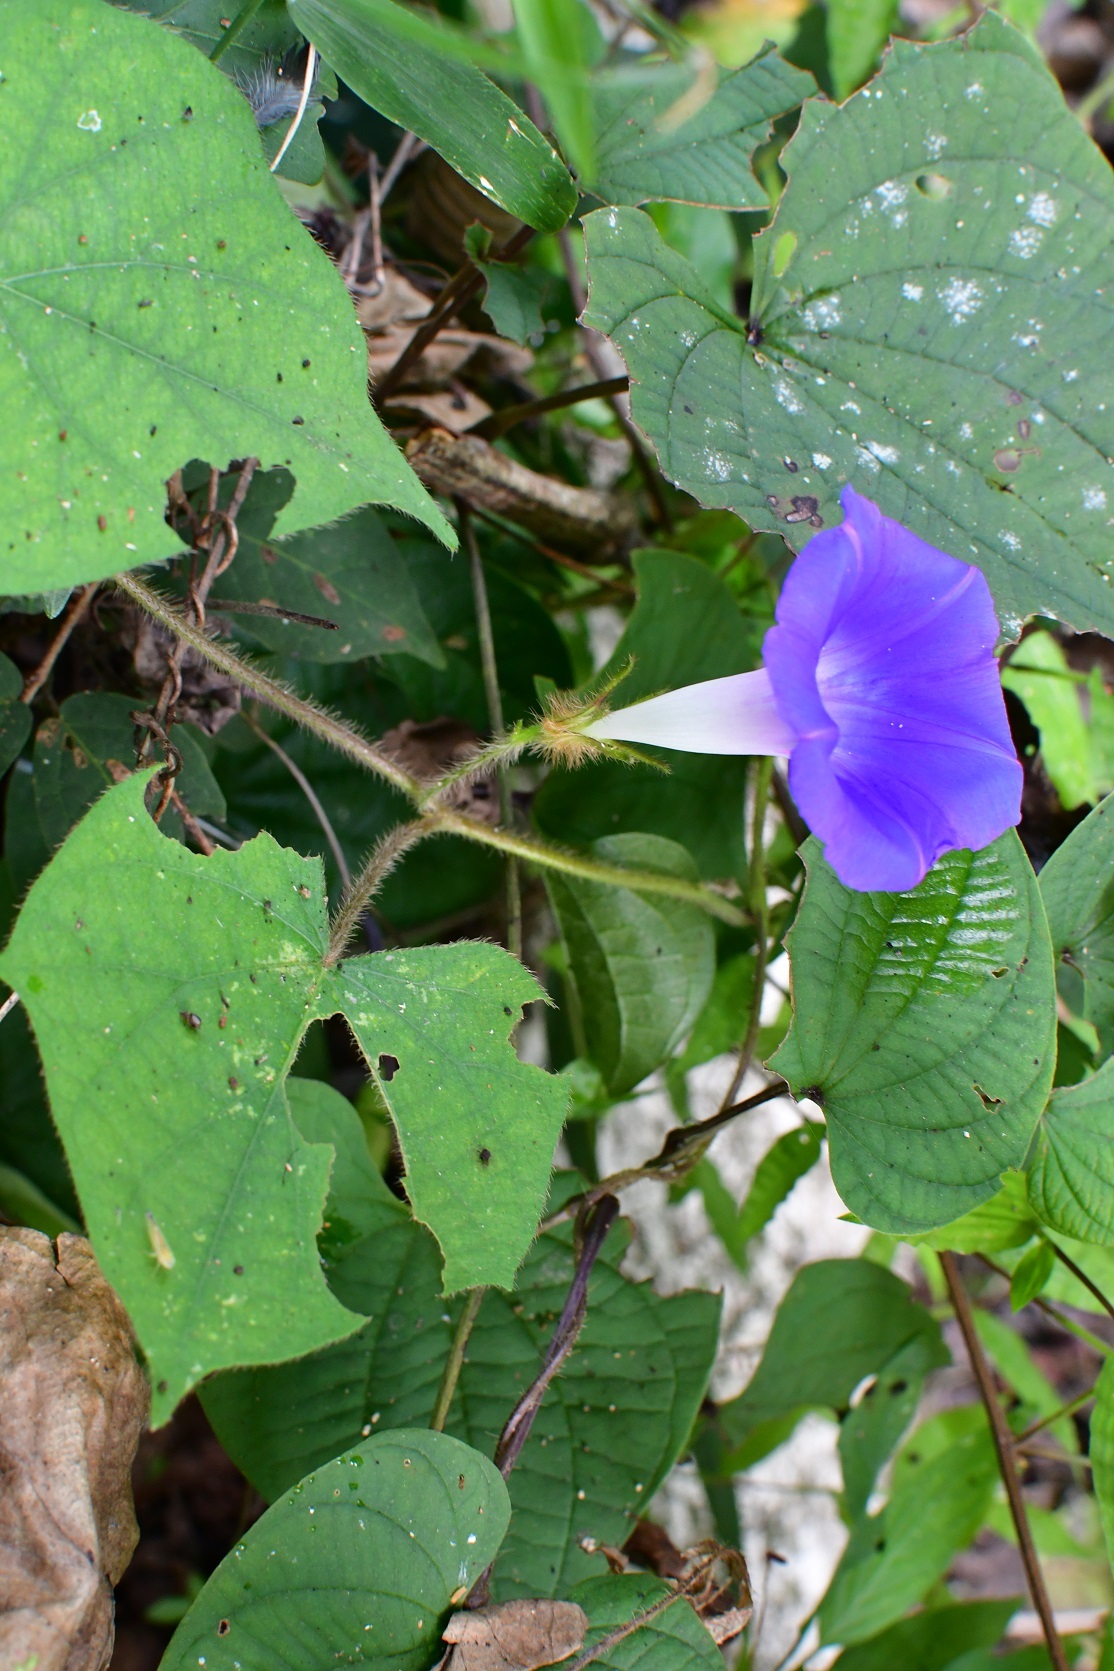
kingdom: Plantae
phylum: Tracheophyta
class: Magnoliopsida
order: Solanales
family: Convolvulaceae
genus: Ipomoea
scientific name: Ipomoea hederacea
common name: Ivy-leaved morning-glory
